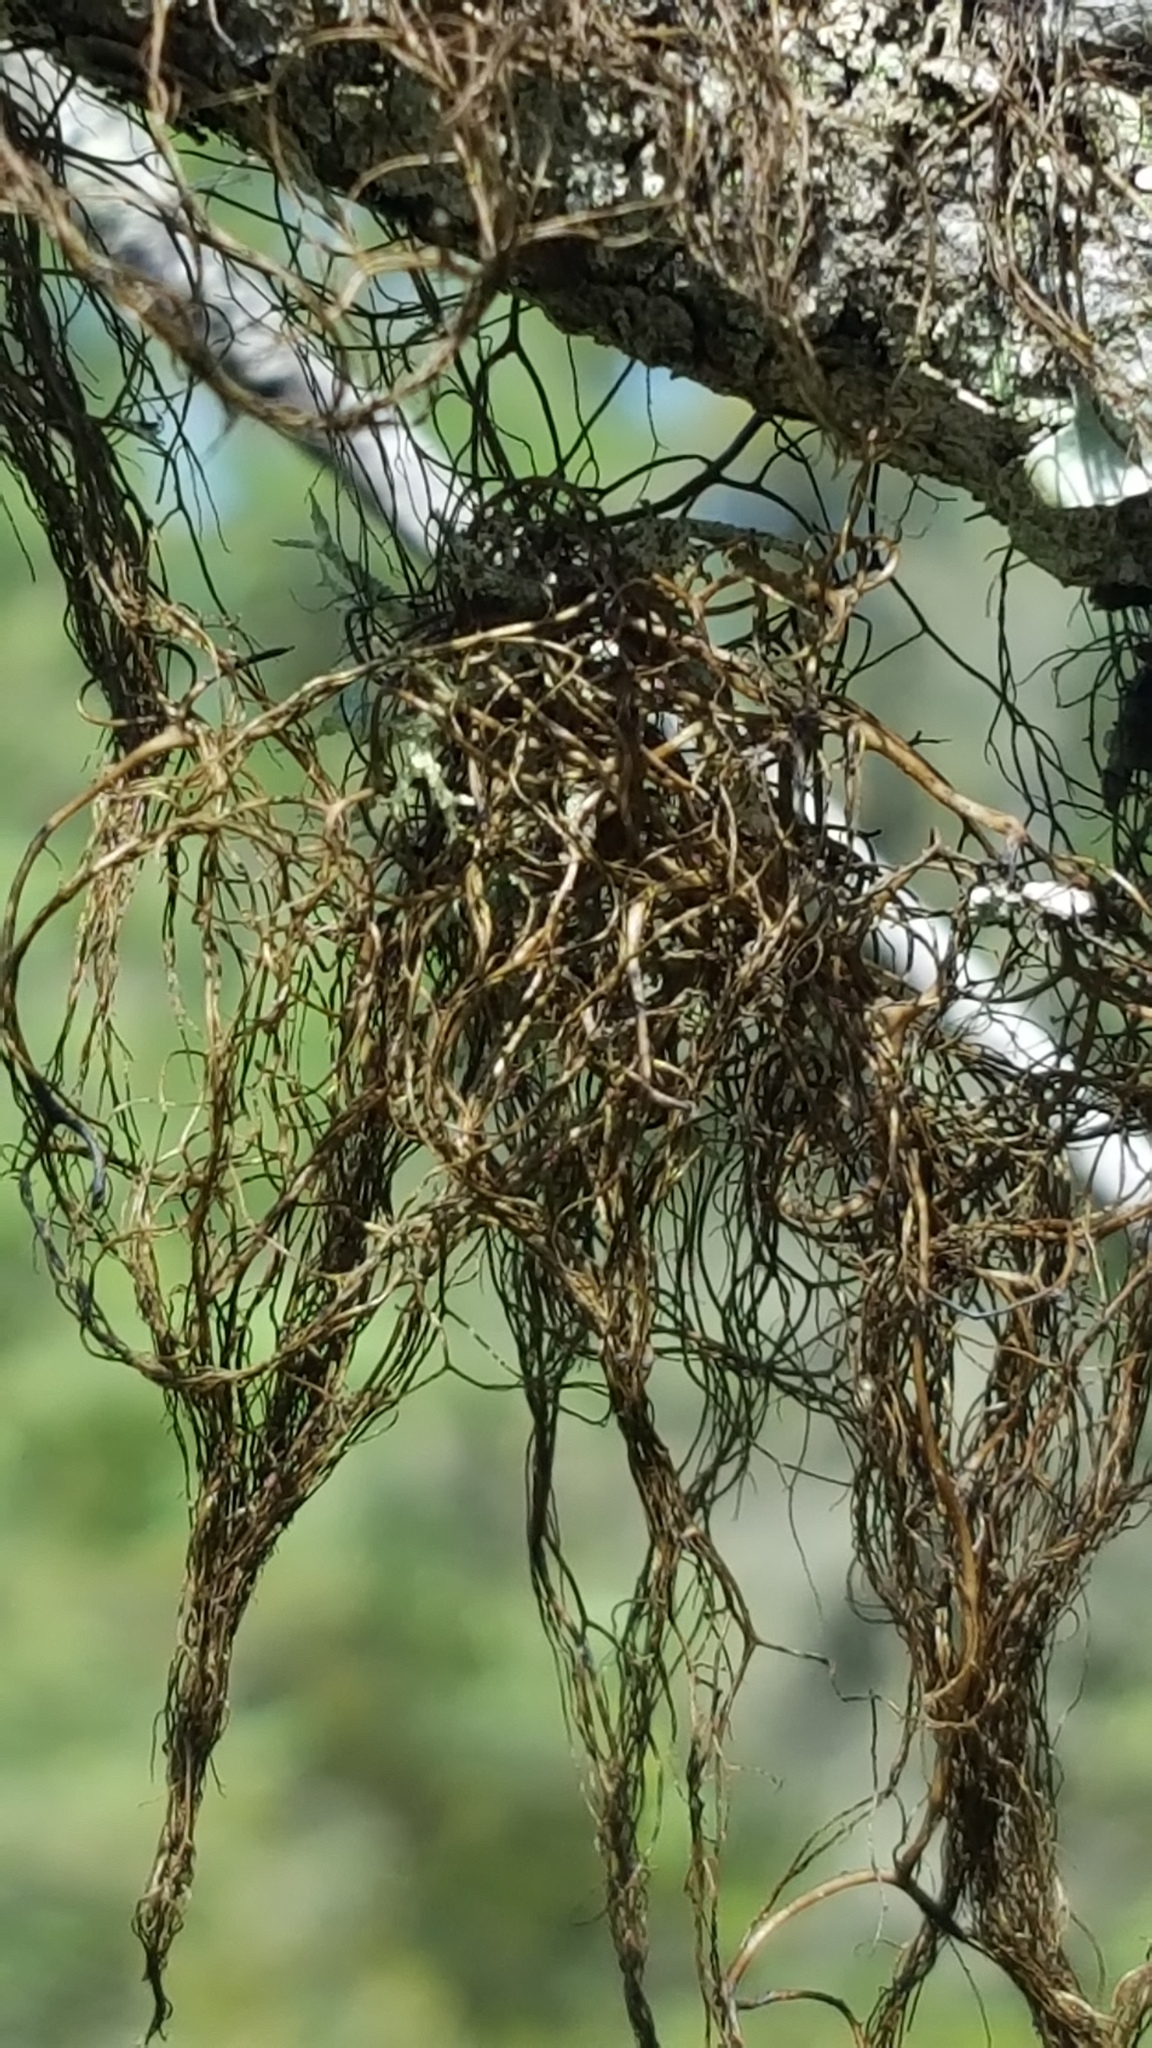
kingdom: Fungi
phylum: Ascomycota
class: Lecanoromycetes
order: Lecanorales
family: Parmeliaceae
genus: Bryoria
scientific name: Bryoria furcellata
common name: Forked hair-lichen
